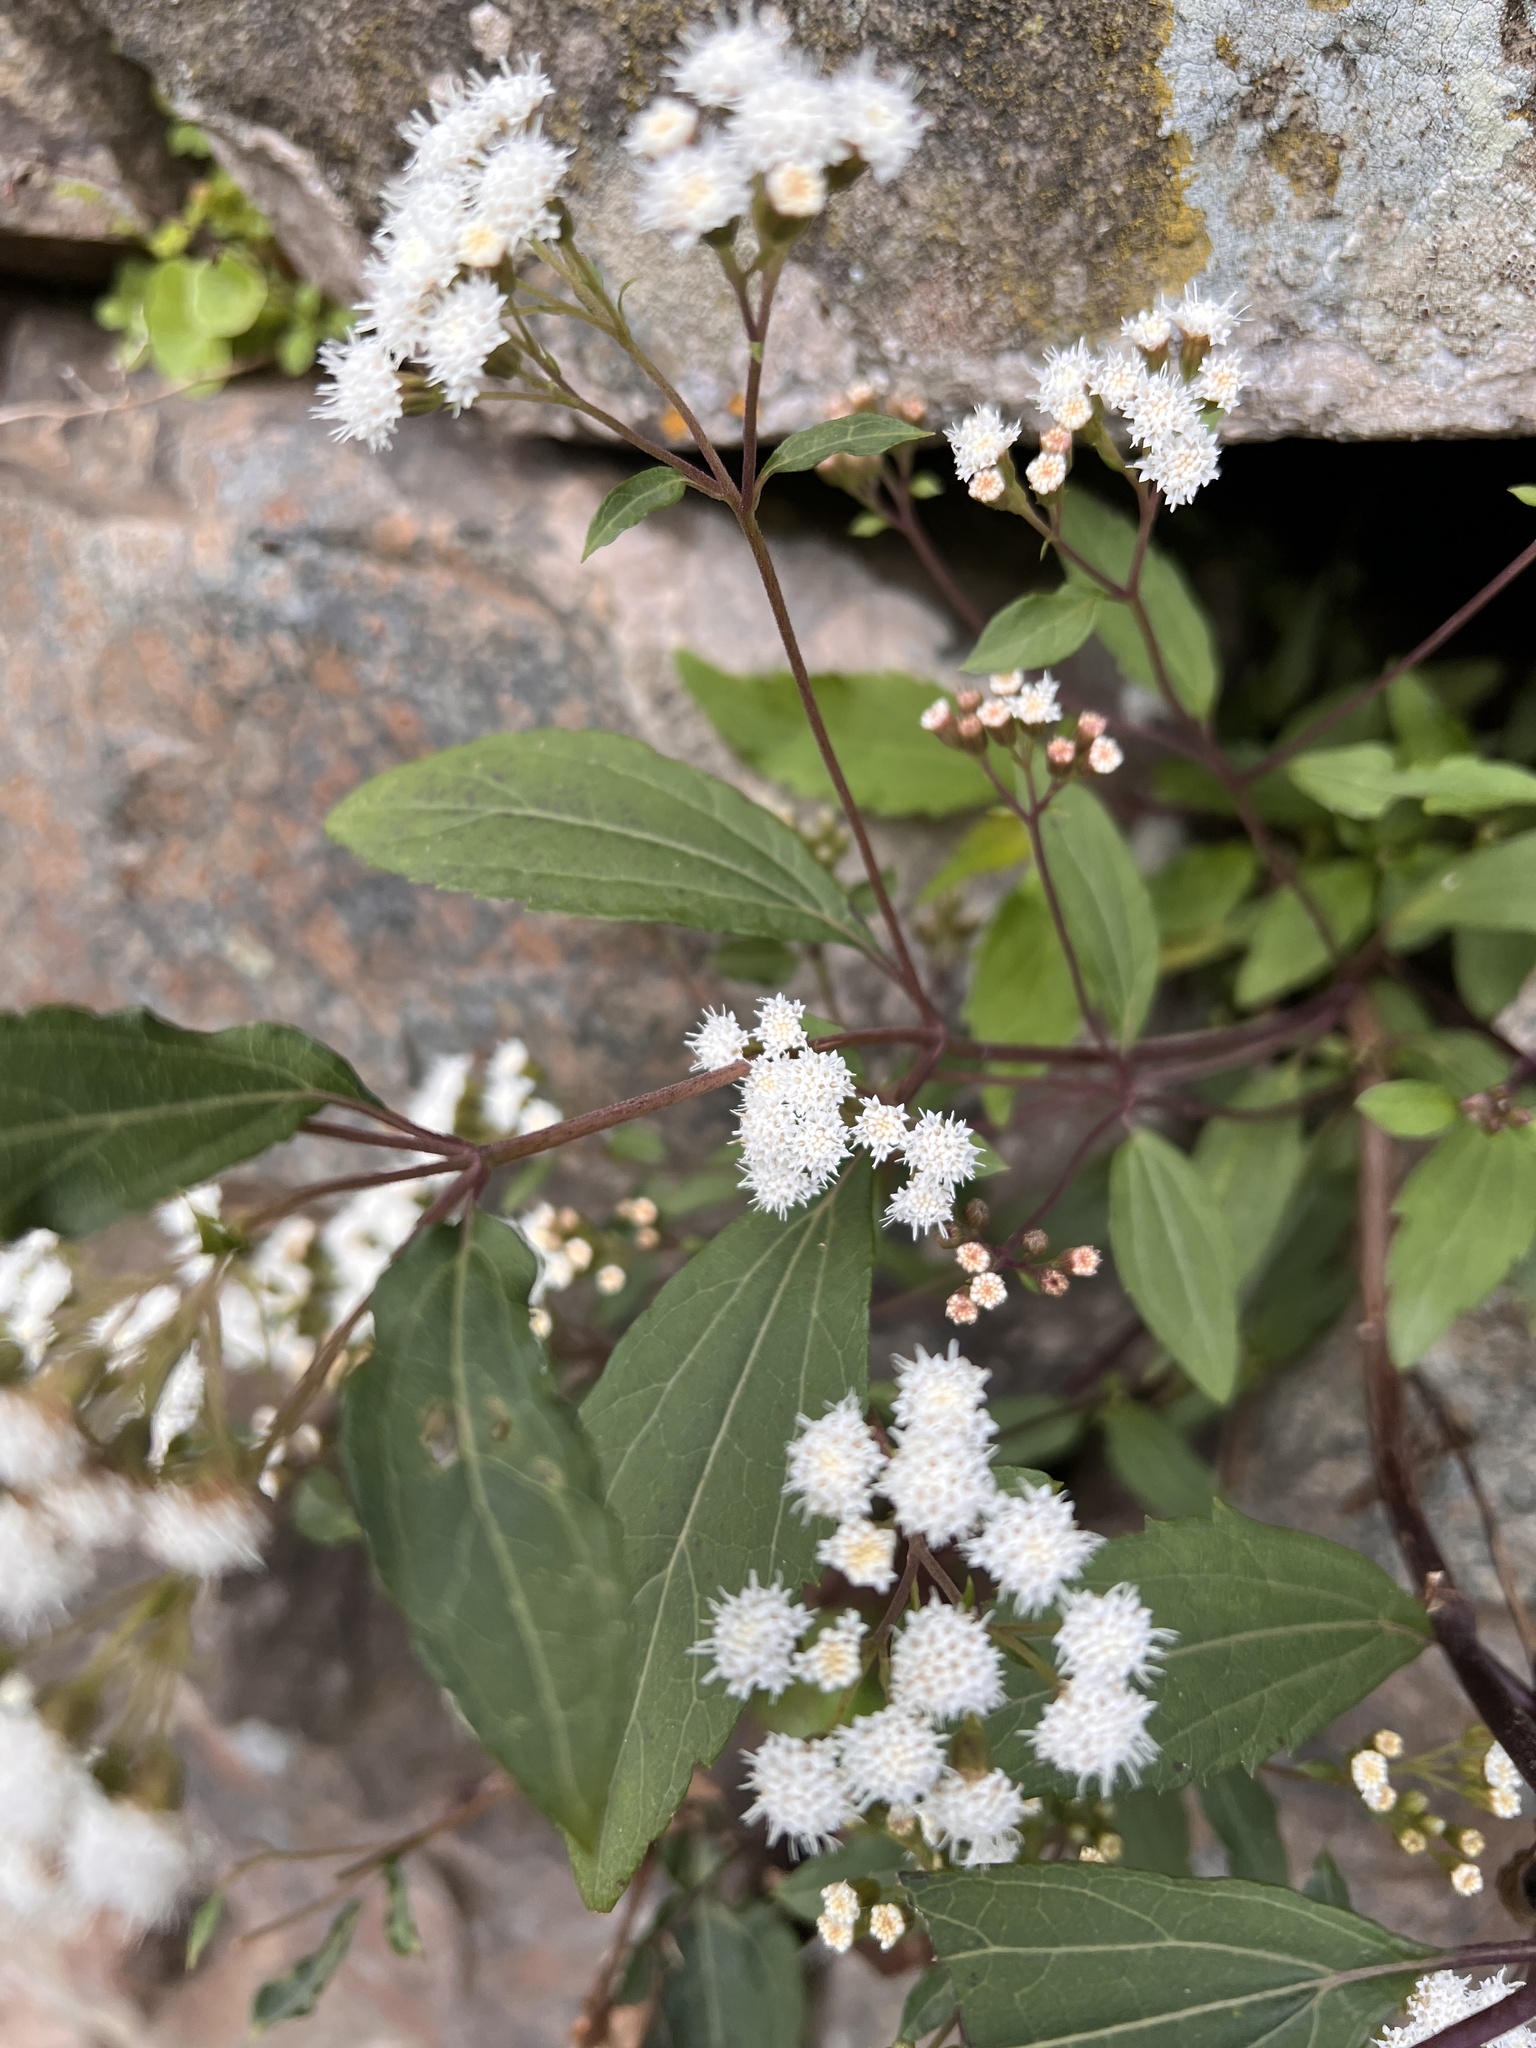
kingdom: Plantae
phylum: Tracheophyta
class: Magnoliopsida
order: Asterales
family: Asteraceae
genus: Ageratina
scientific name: Ageratina riparia
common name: Creeping croftonweed
